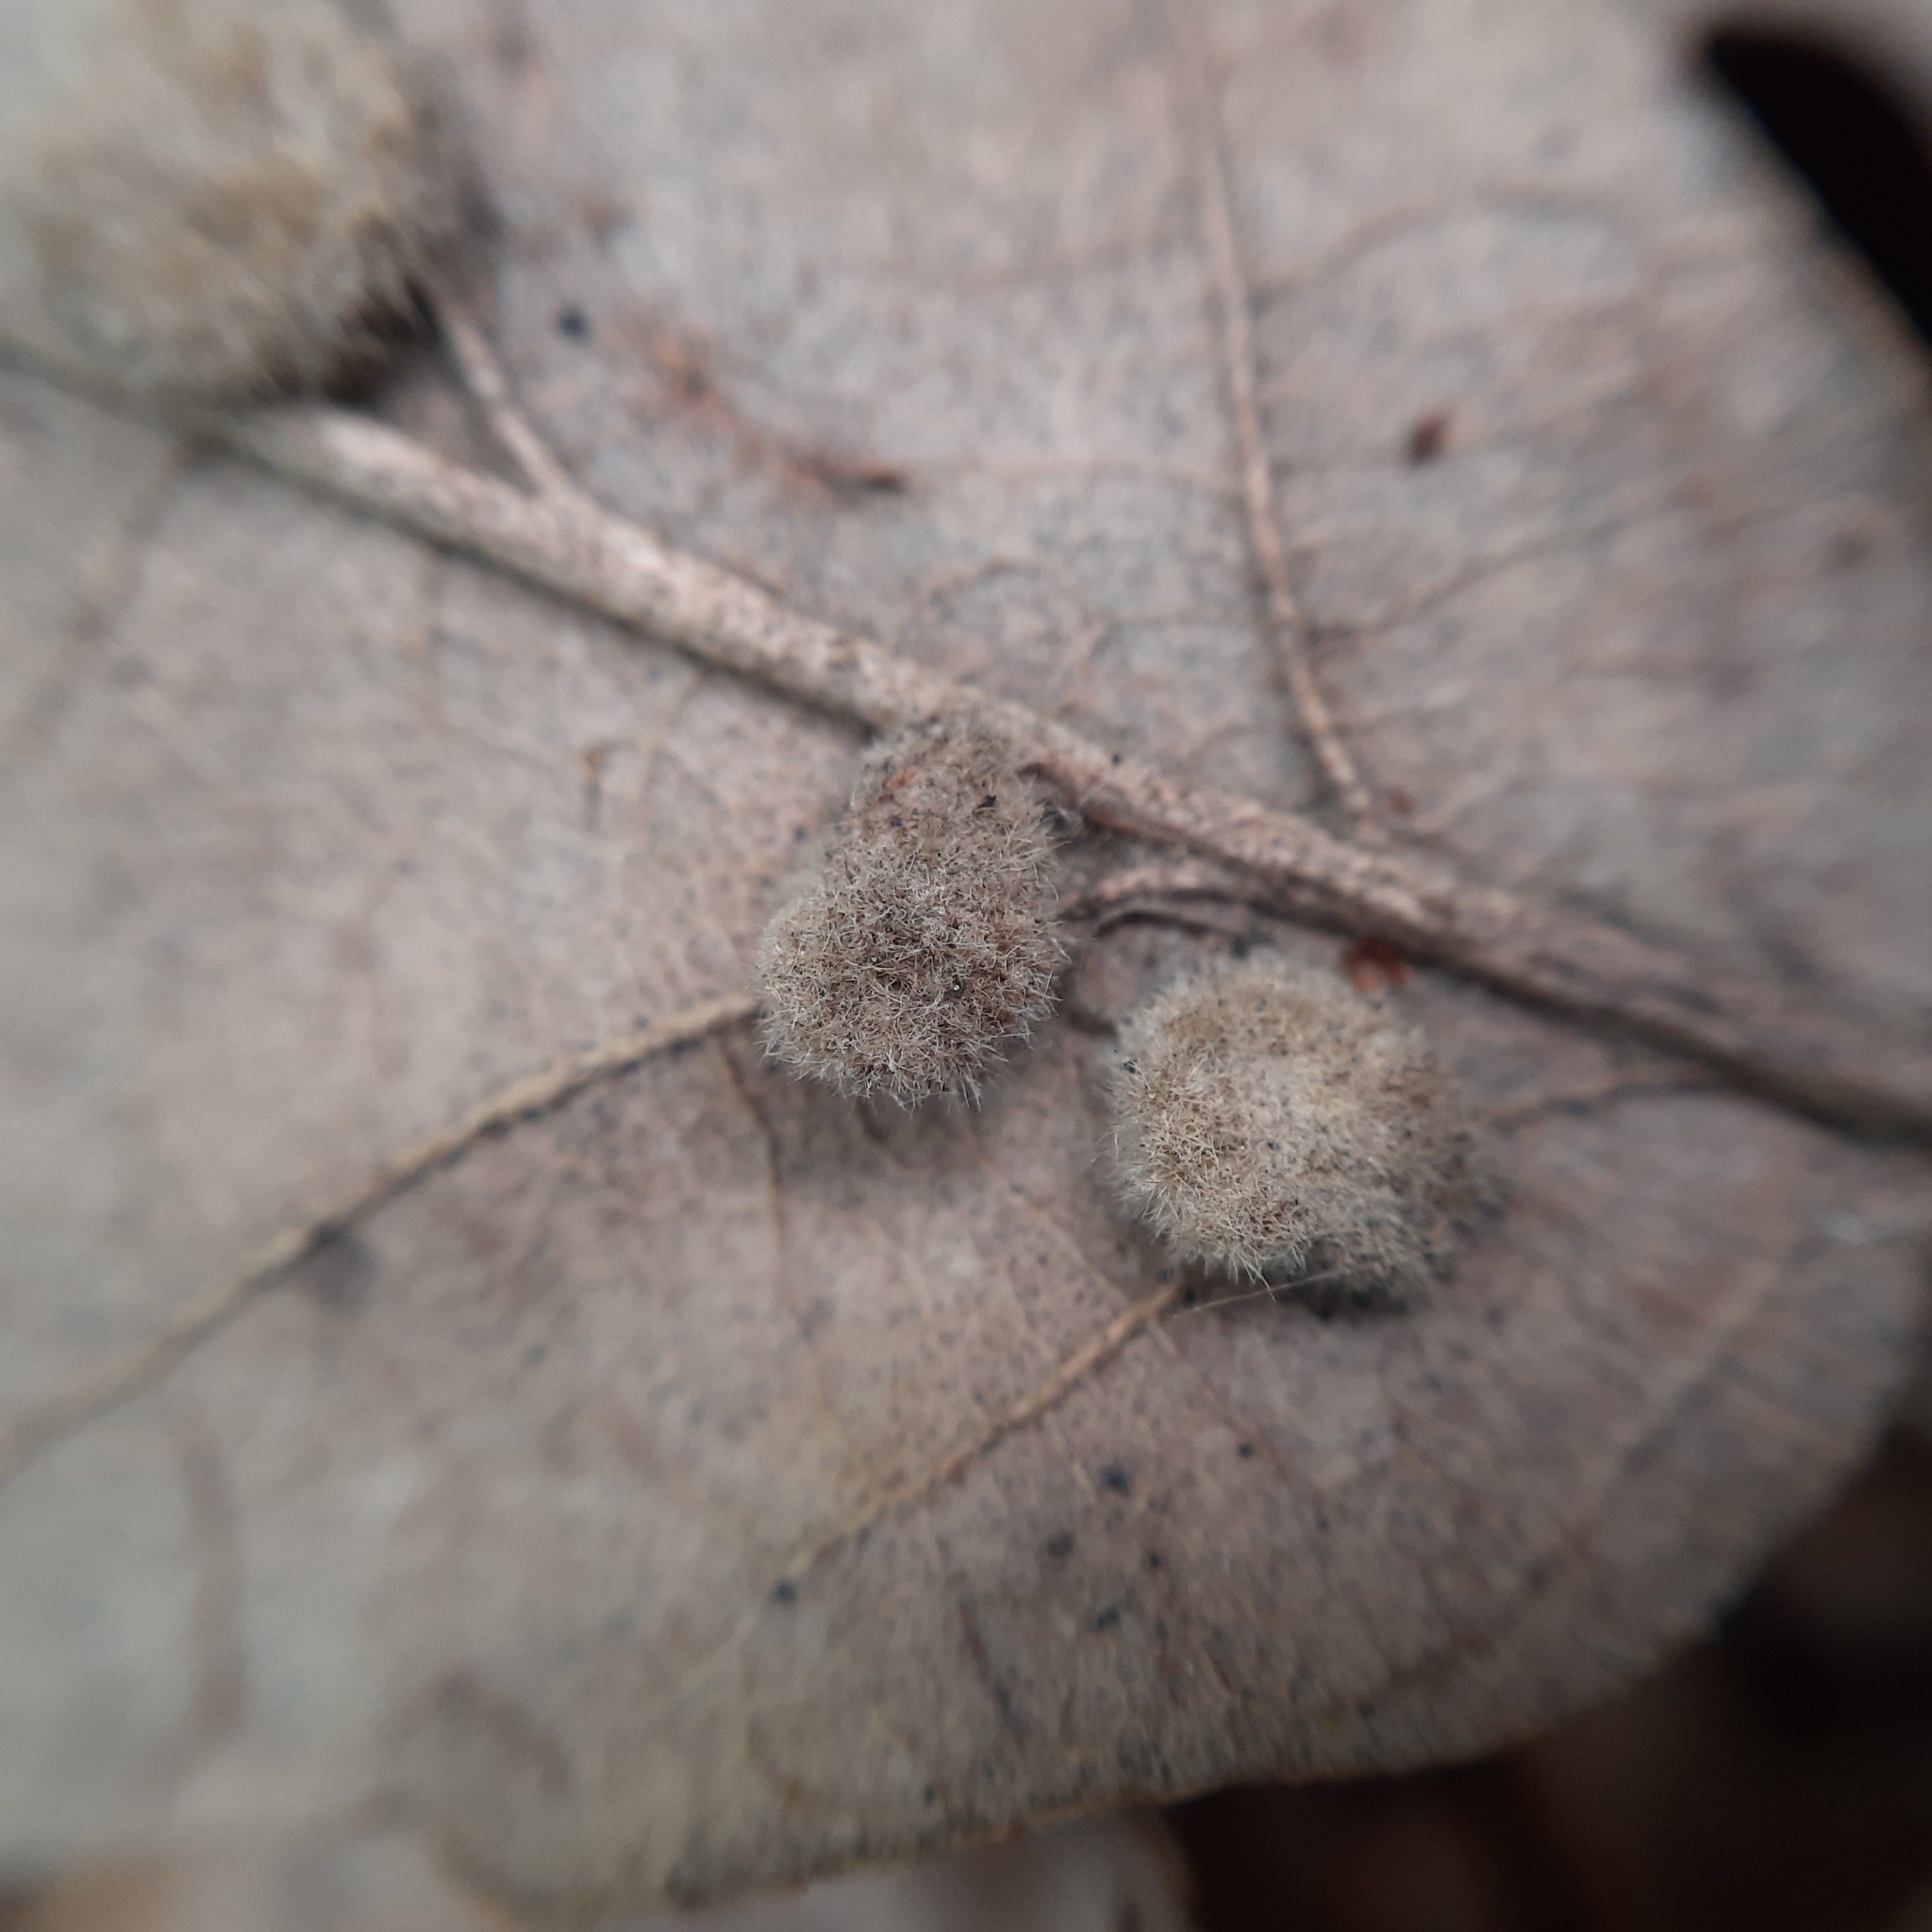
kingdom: Animalia
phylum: Arthropoda
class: Insecta
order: Diptera
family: Cecidomyiidae
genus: Dryomyia
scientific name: Dryomyia circinans
